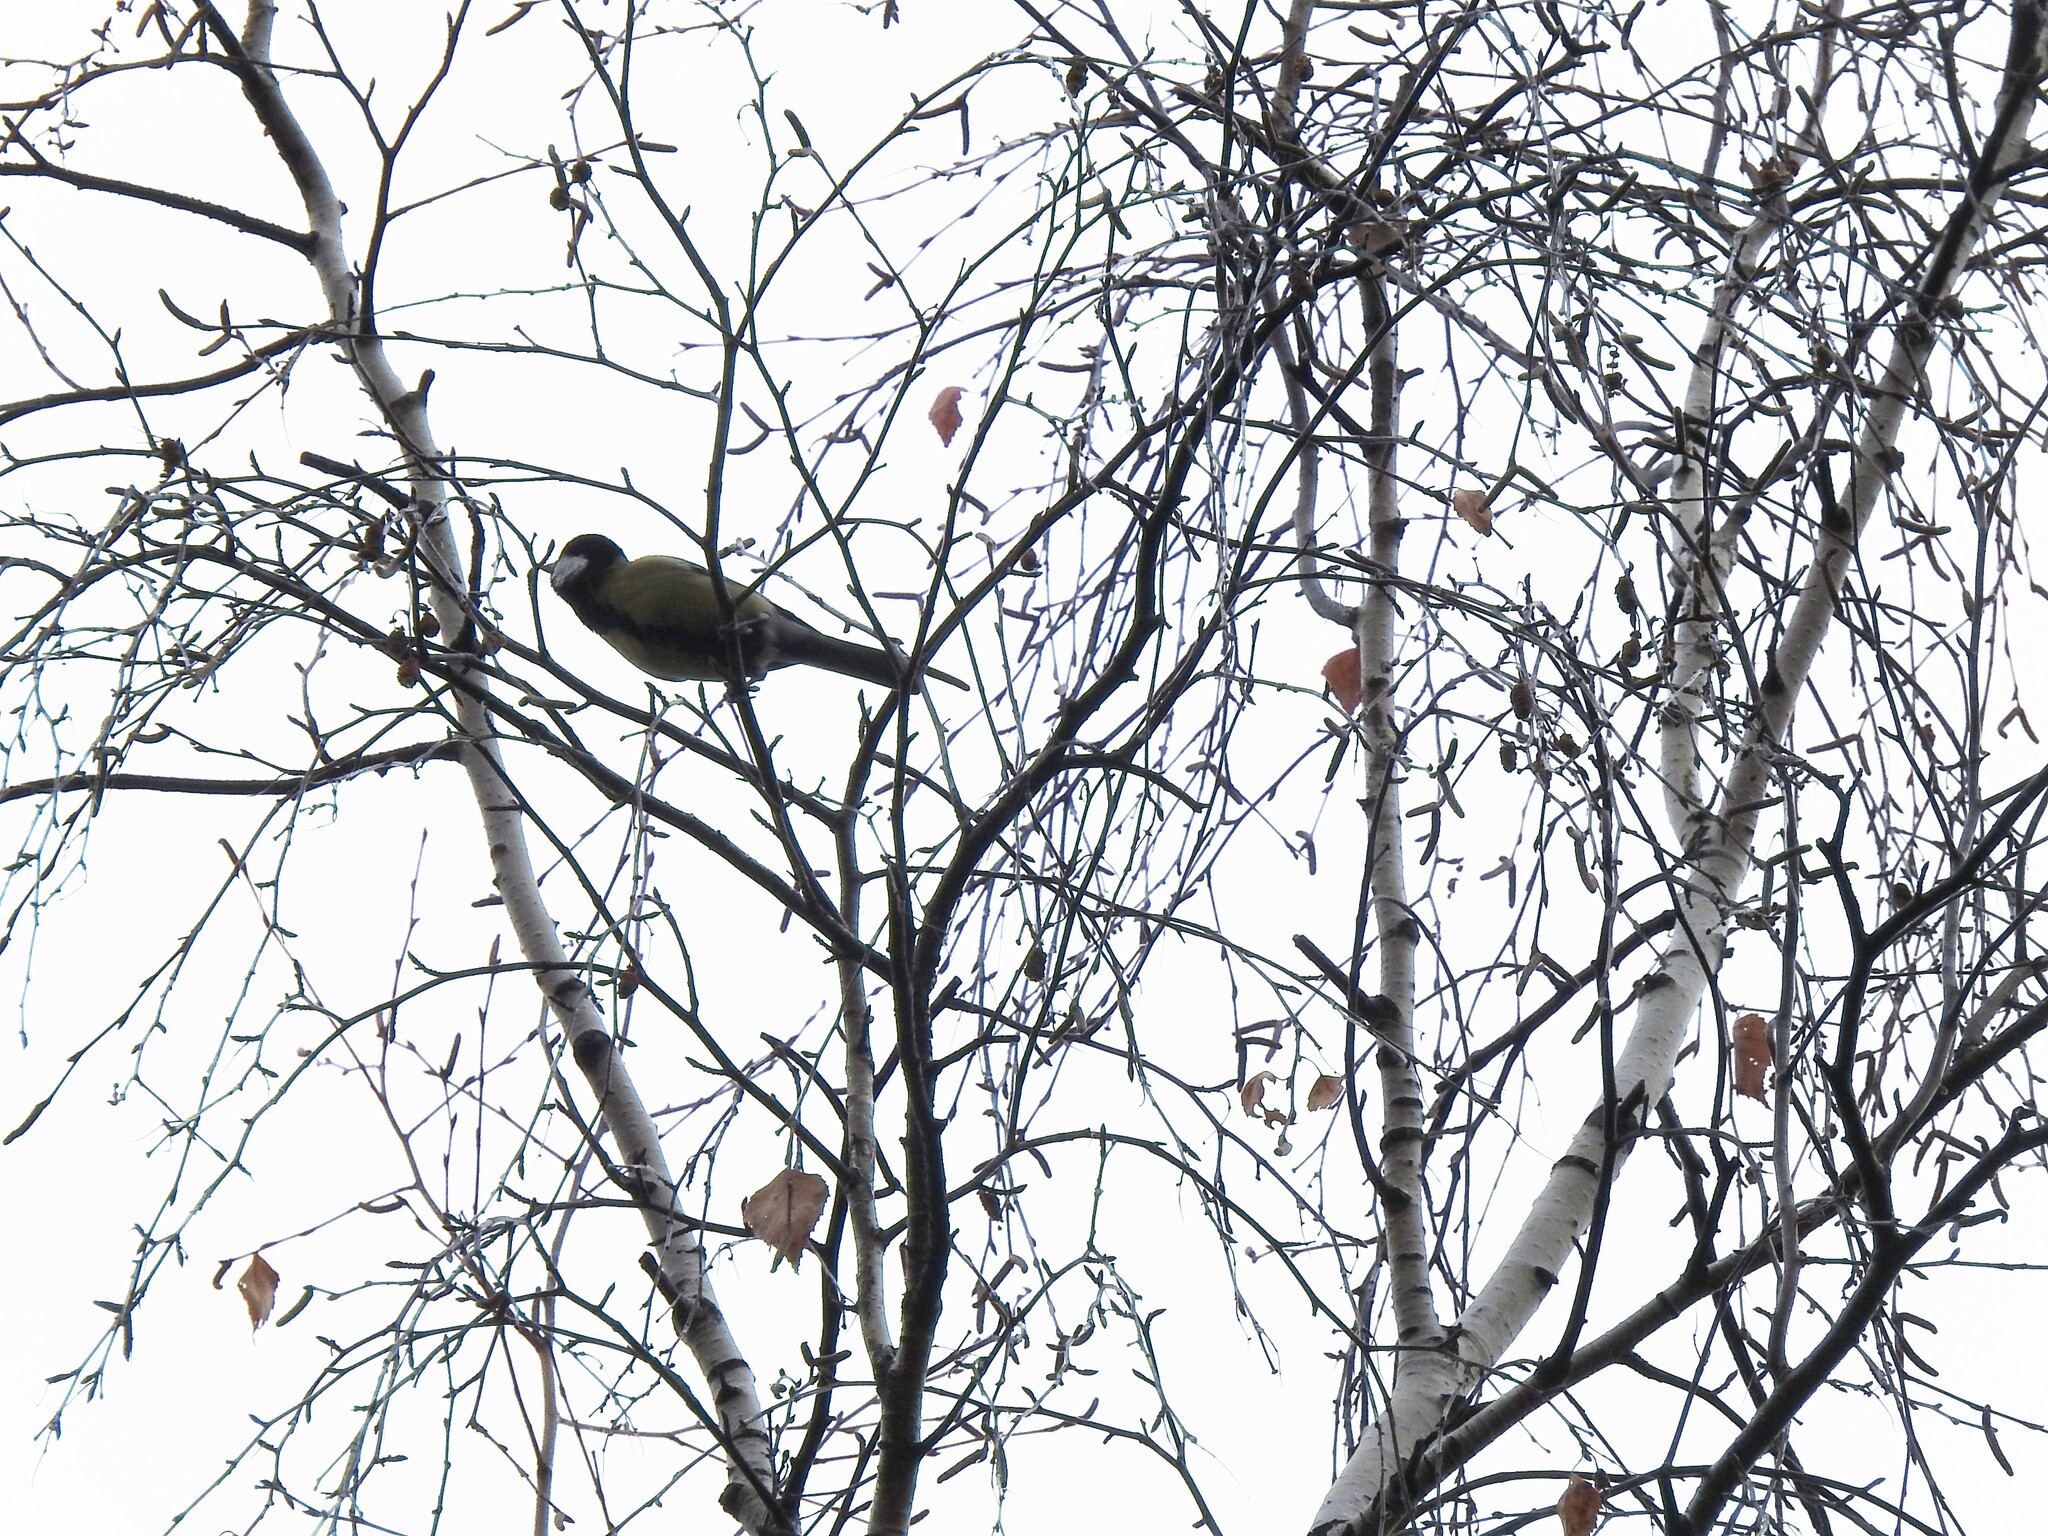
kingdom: Animalia
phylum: Chordata
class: Aves
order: Passeriformes
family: Paridae
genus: Parus
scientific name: Parus major
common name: Great tit
